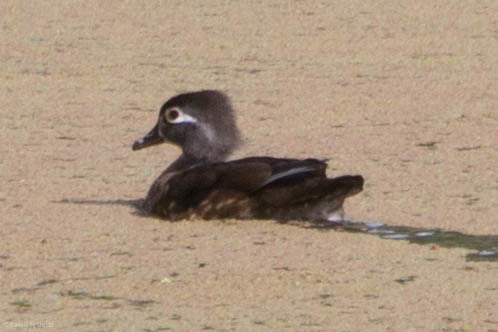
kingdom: Animalia
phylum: Chordata
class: Aves
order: Anseriformes
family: Anatidae
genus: Aix
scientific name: Aix sponsa
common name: Wood duck
